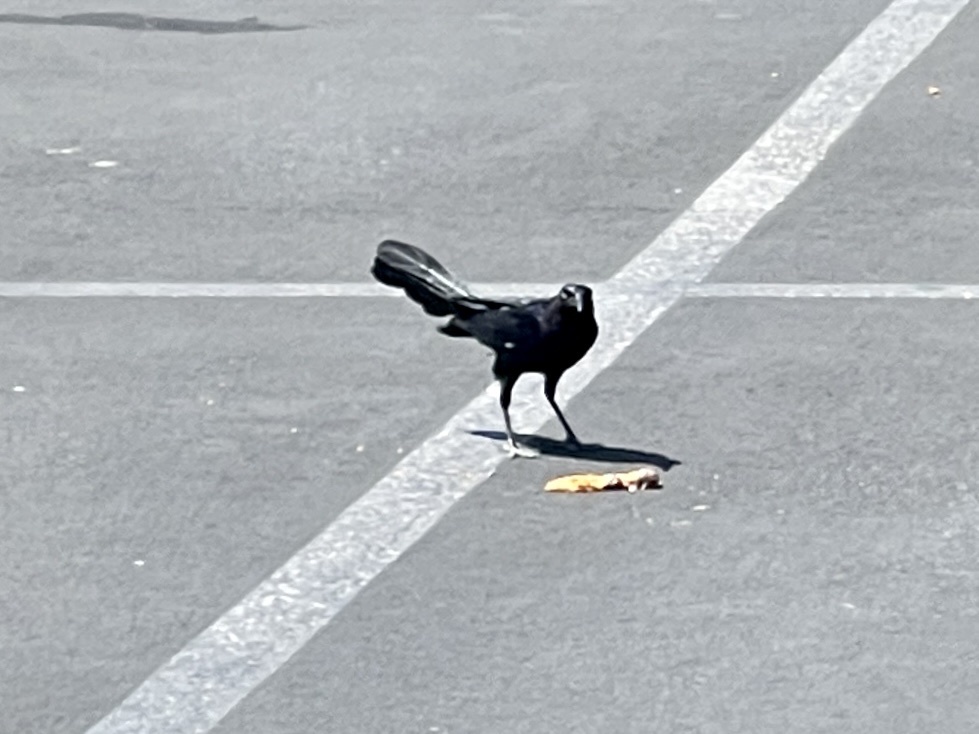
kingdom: Animalia
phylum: Chordata
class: Aves
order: Passeriformes
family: Icteridae
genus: Quiscalus
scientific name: Quiscalus mexicanus
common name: Great-tailed grackle
